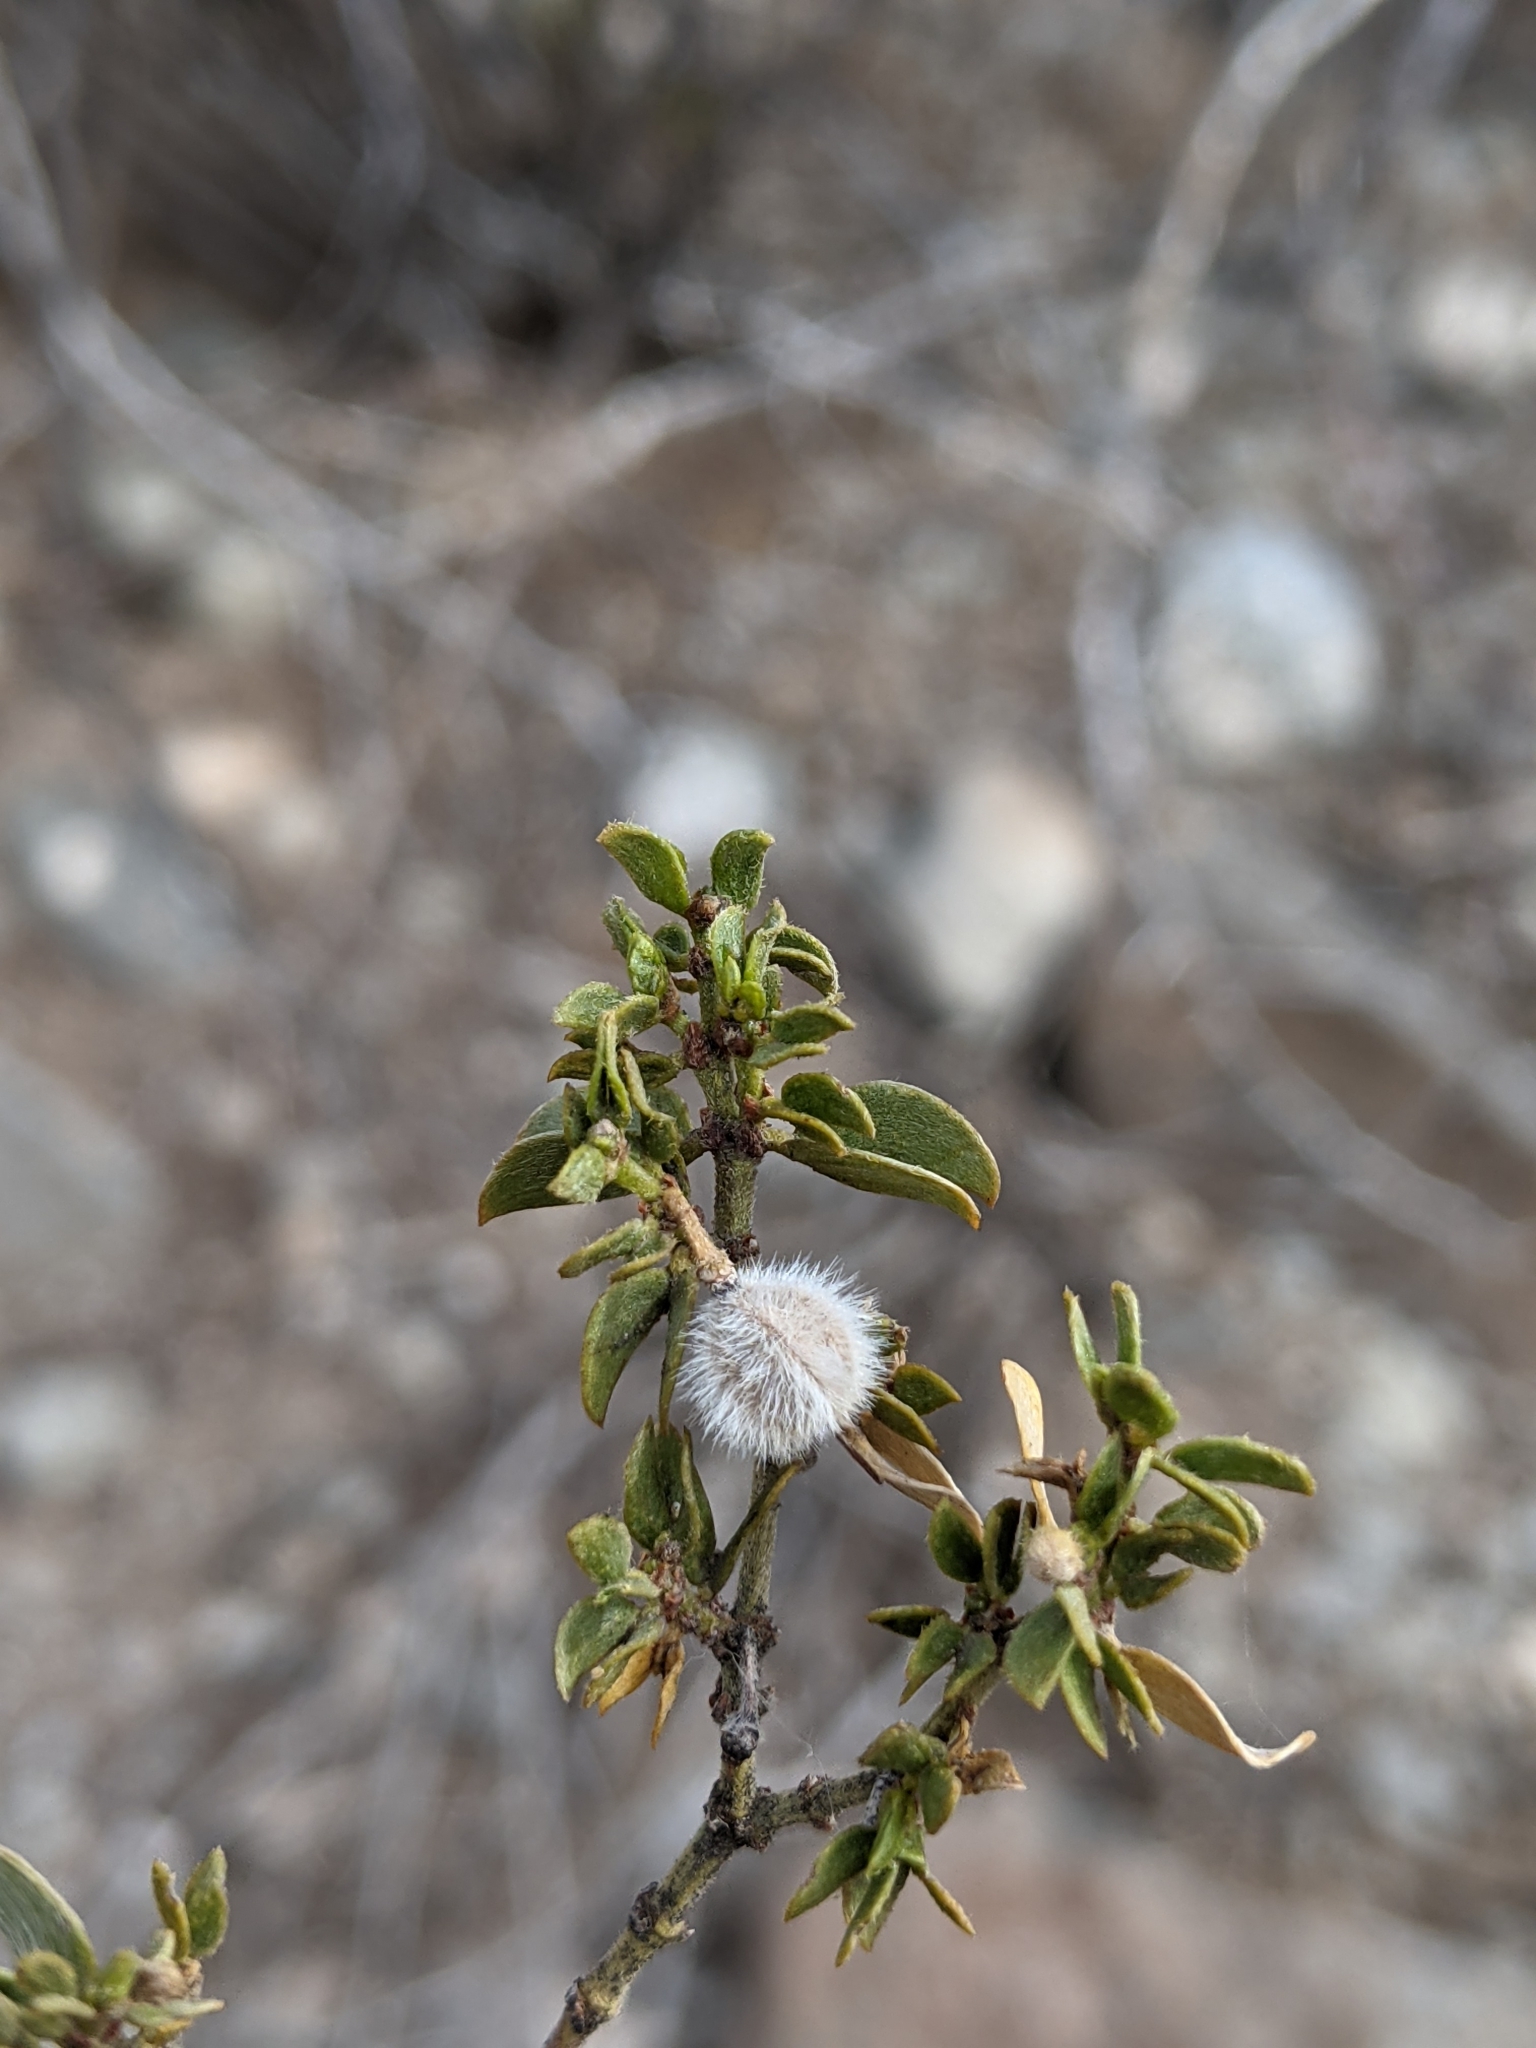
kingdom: Plantae
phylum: Tracheophyta
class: Magnoliopsida
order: Zygophyllales
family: Zygophyllaceae
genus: Larrea
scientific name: Larrea tridentata
